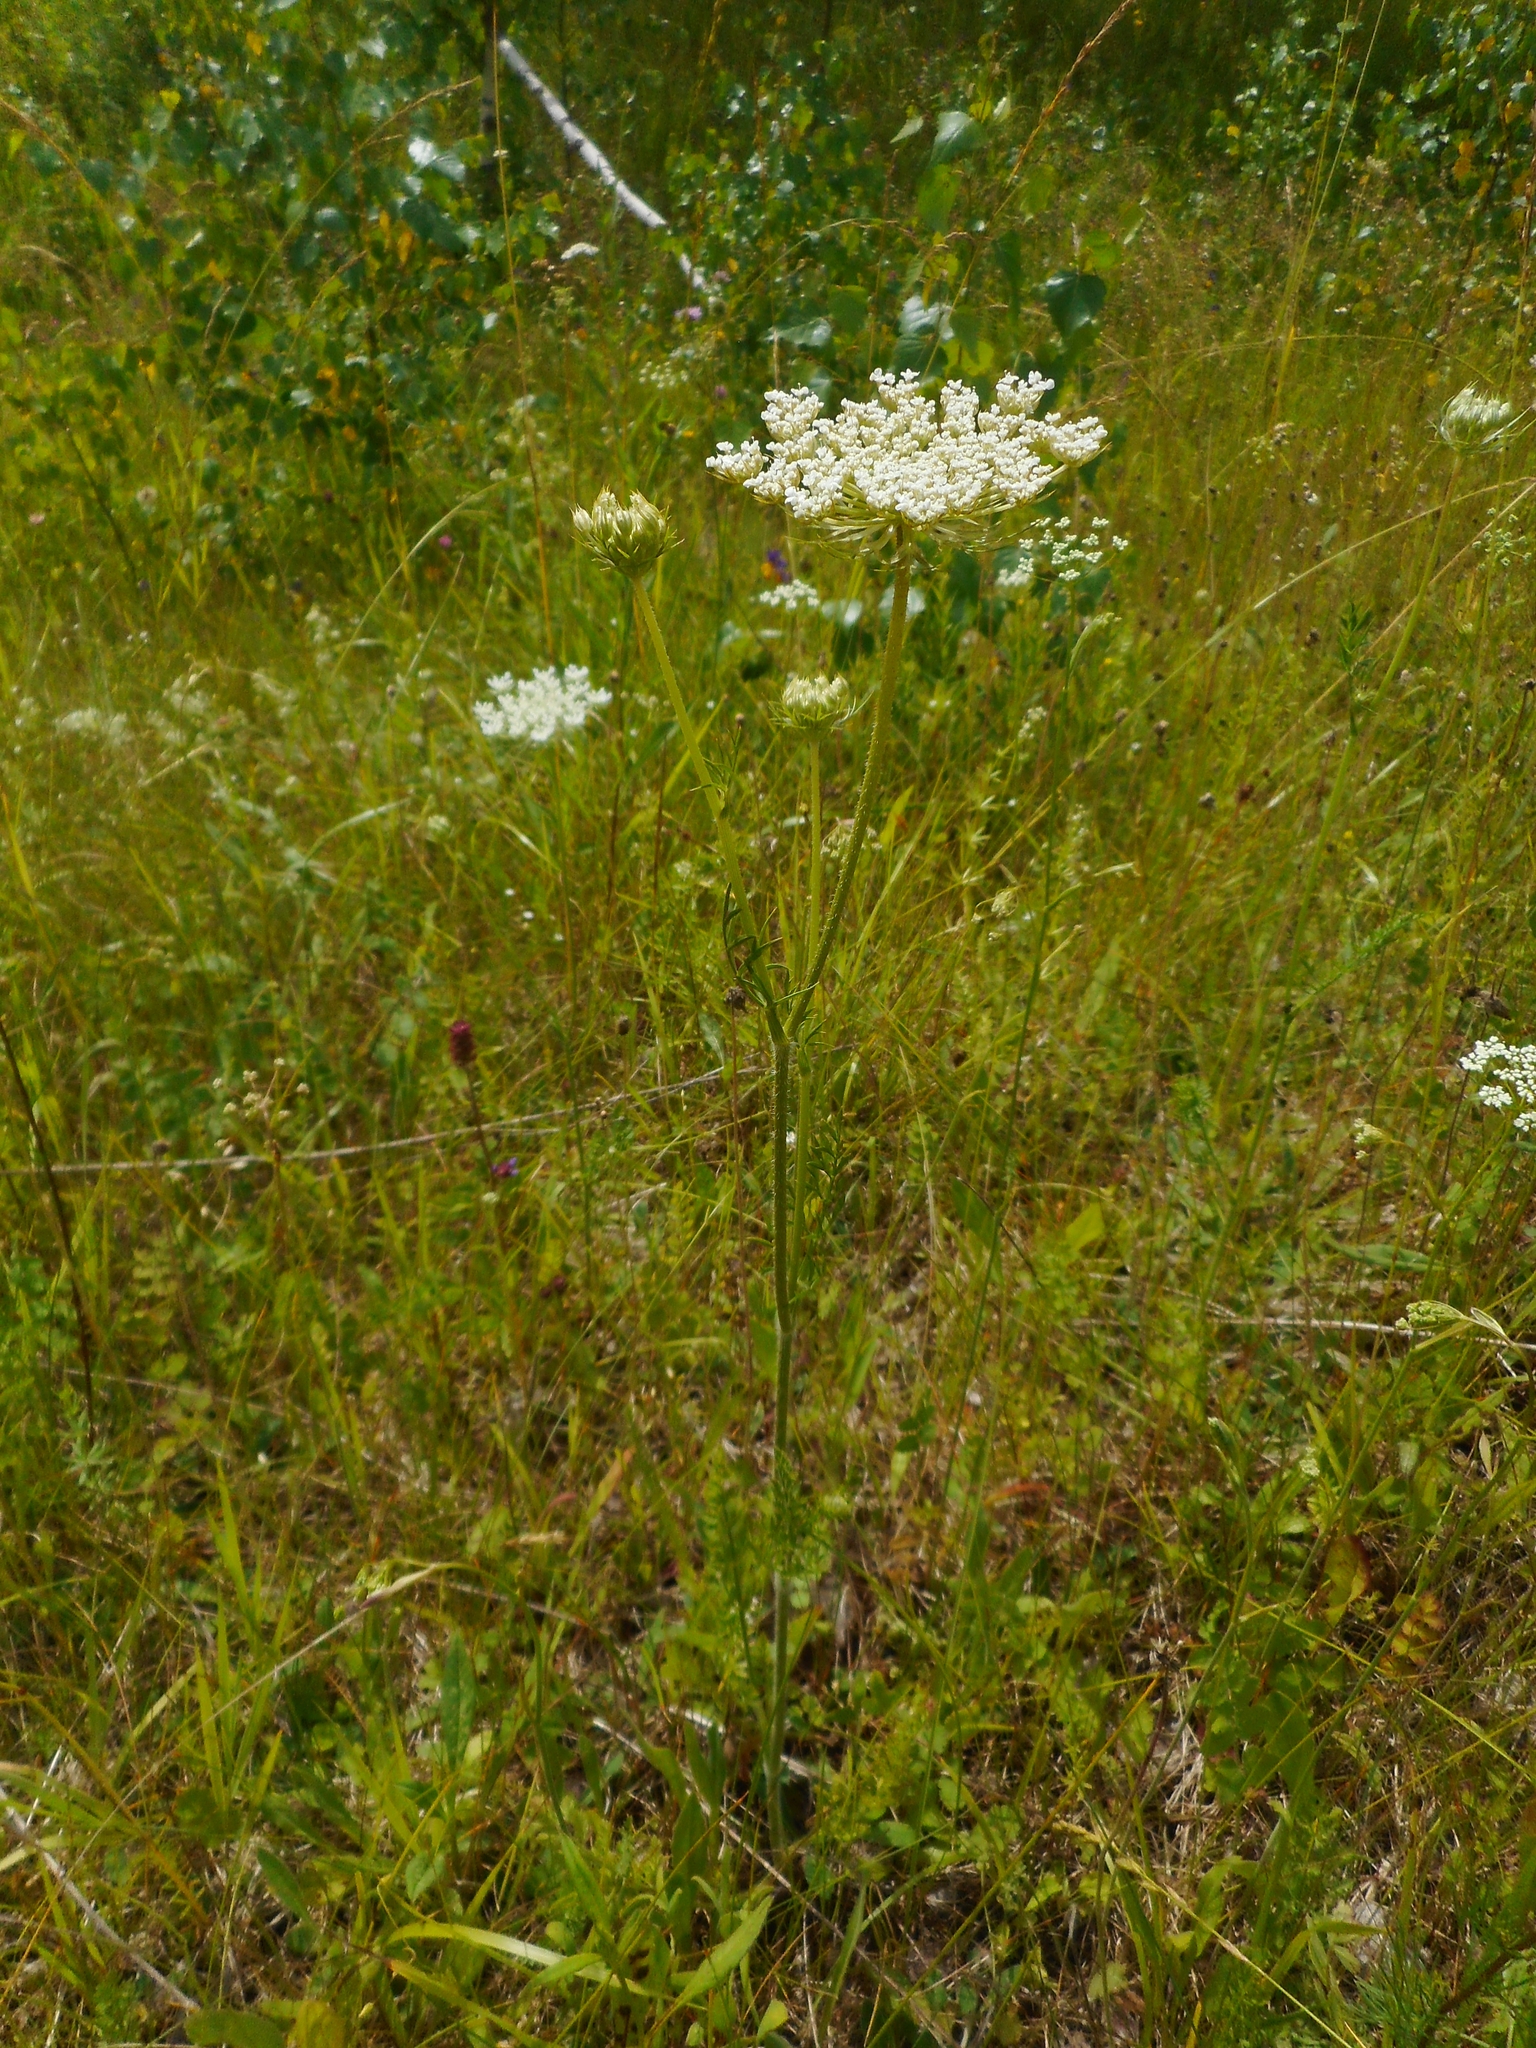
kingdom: Plantae
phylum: Tracheophyta
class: Magnoliopsida
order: Apiales
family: Apiaceae
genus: Daucus
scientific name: Daucus carota
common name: Wild carrot
